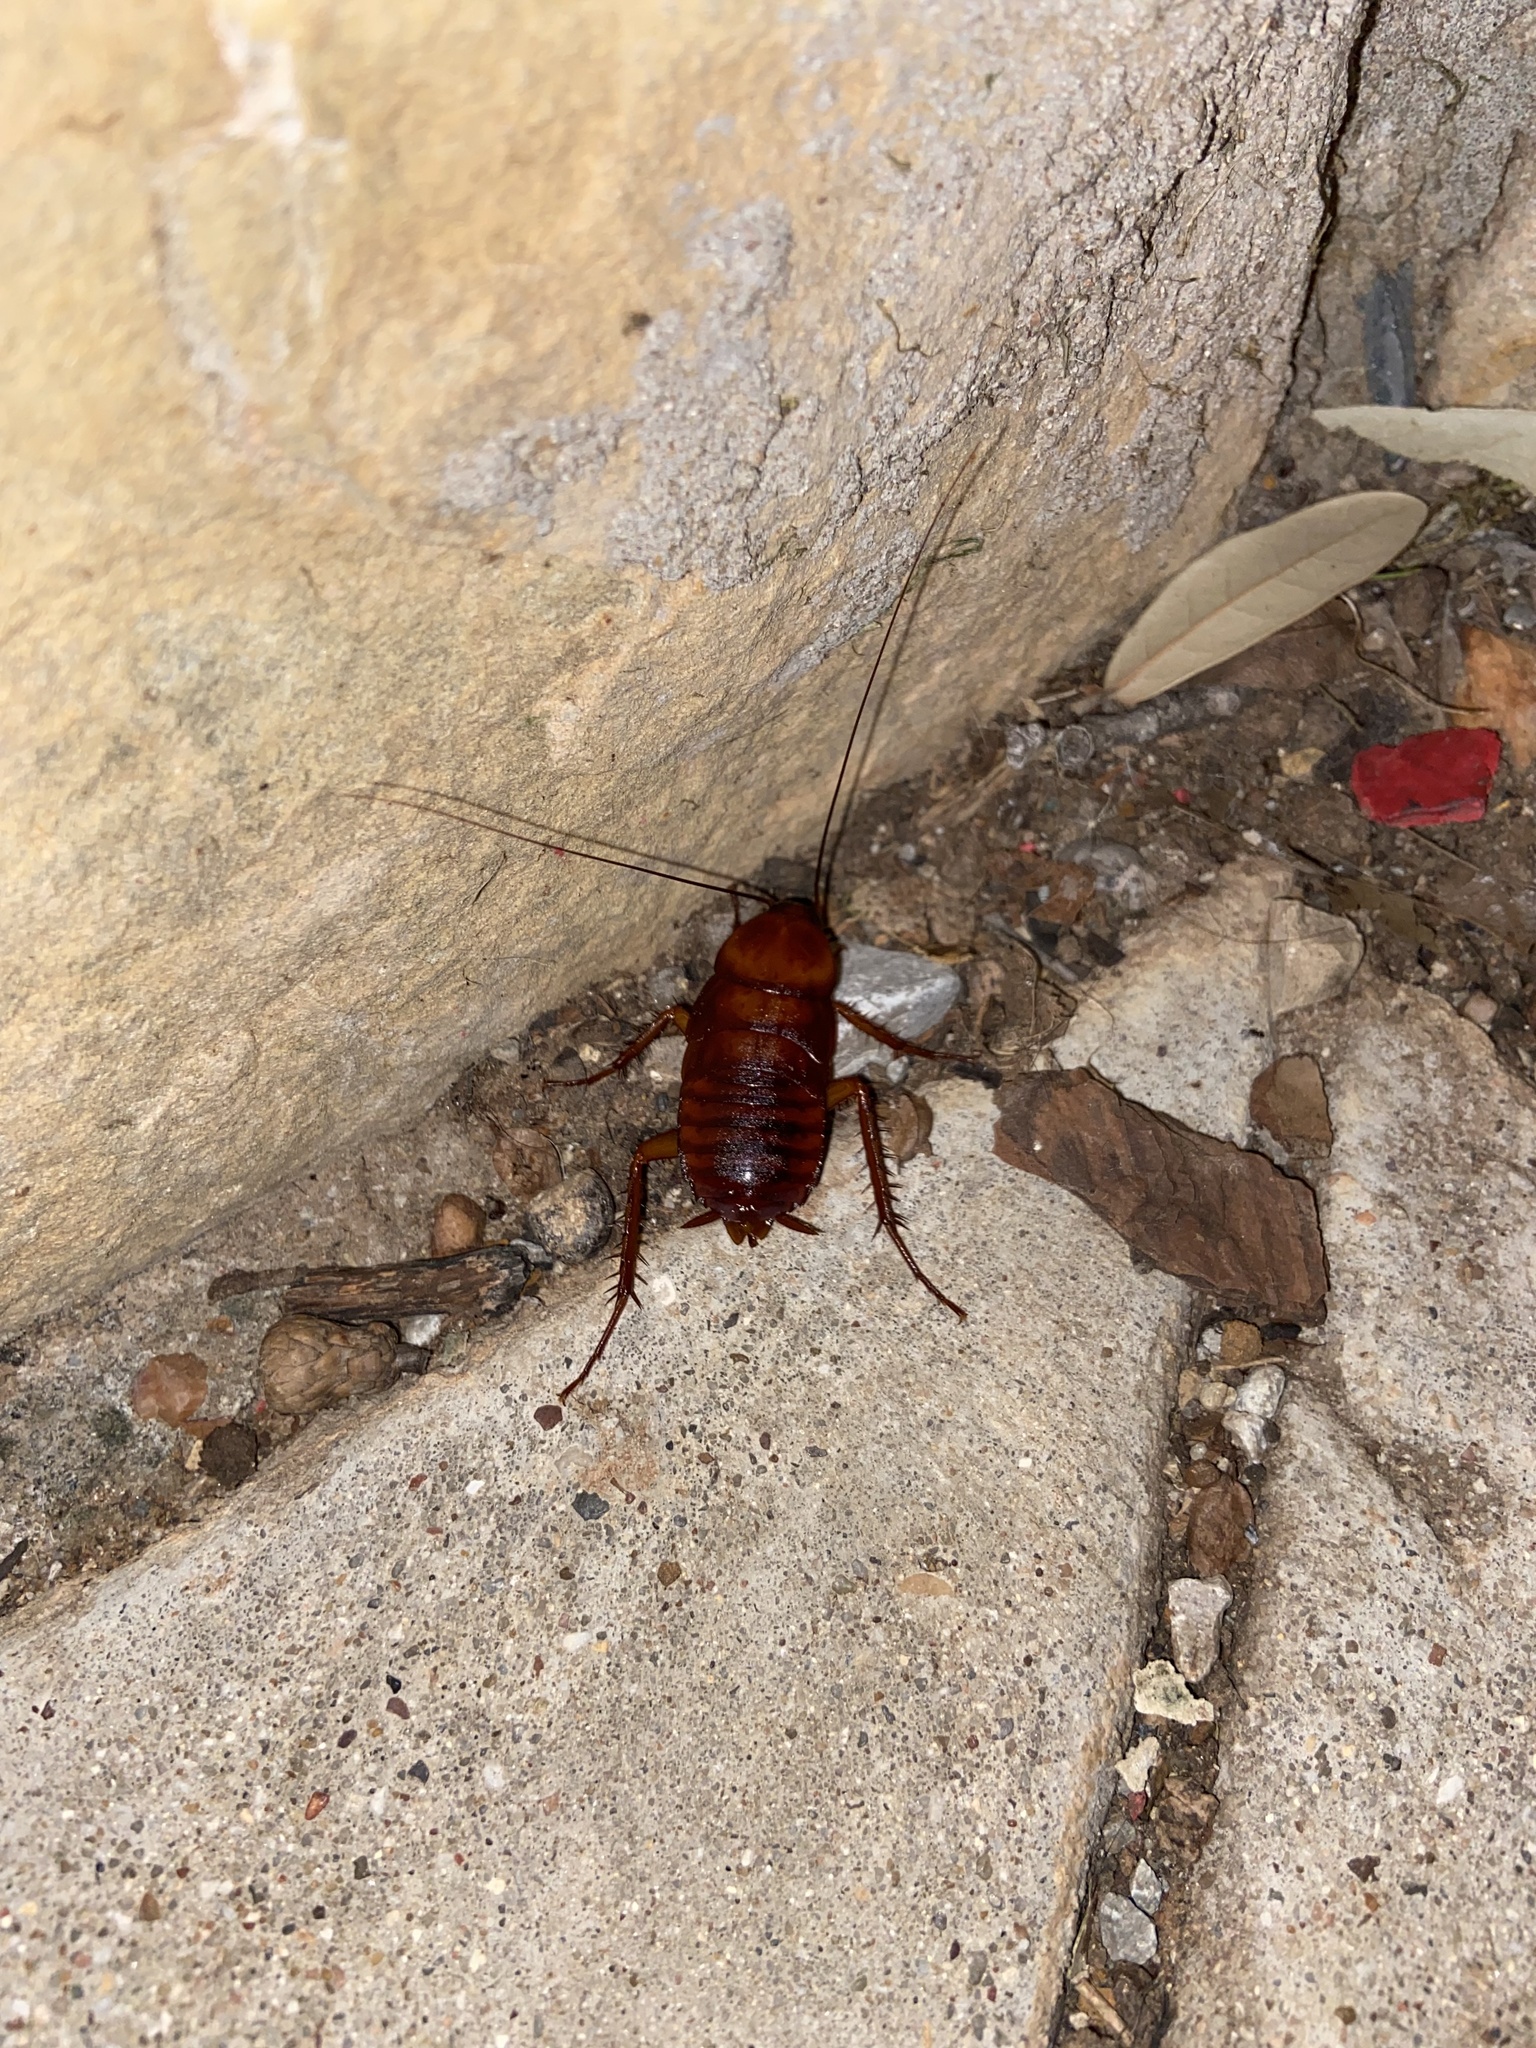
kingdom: Animalia
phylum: Arthropoda
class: Insecta
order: Blattodea
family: Blattidae
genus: Periplaneta
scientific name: Periplaneta fuliginosa
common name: Smokeybrown cockroad
